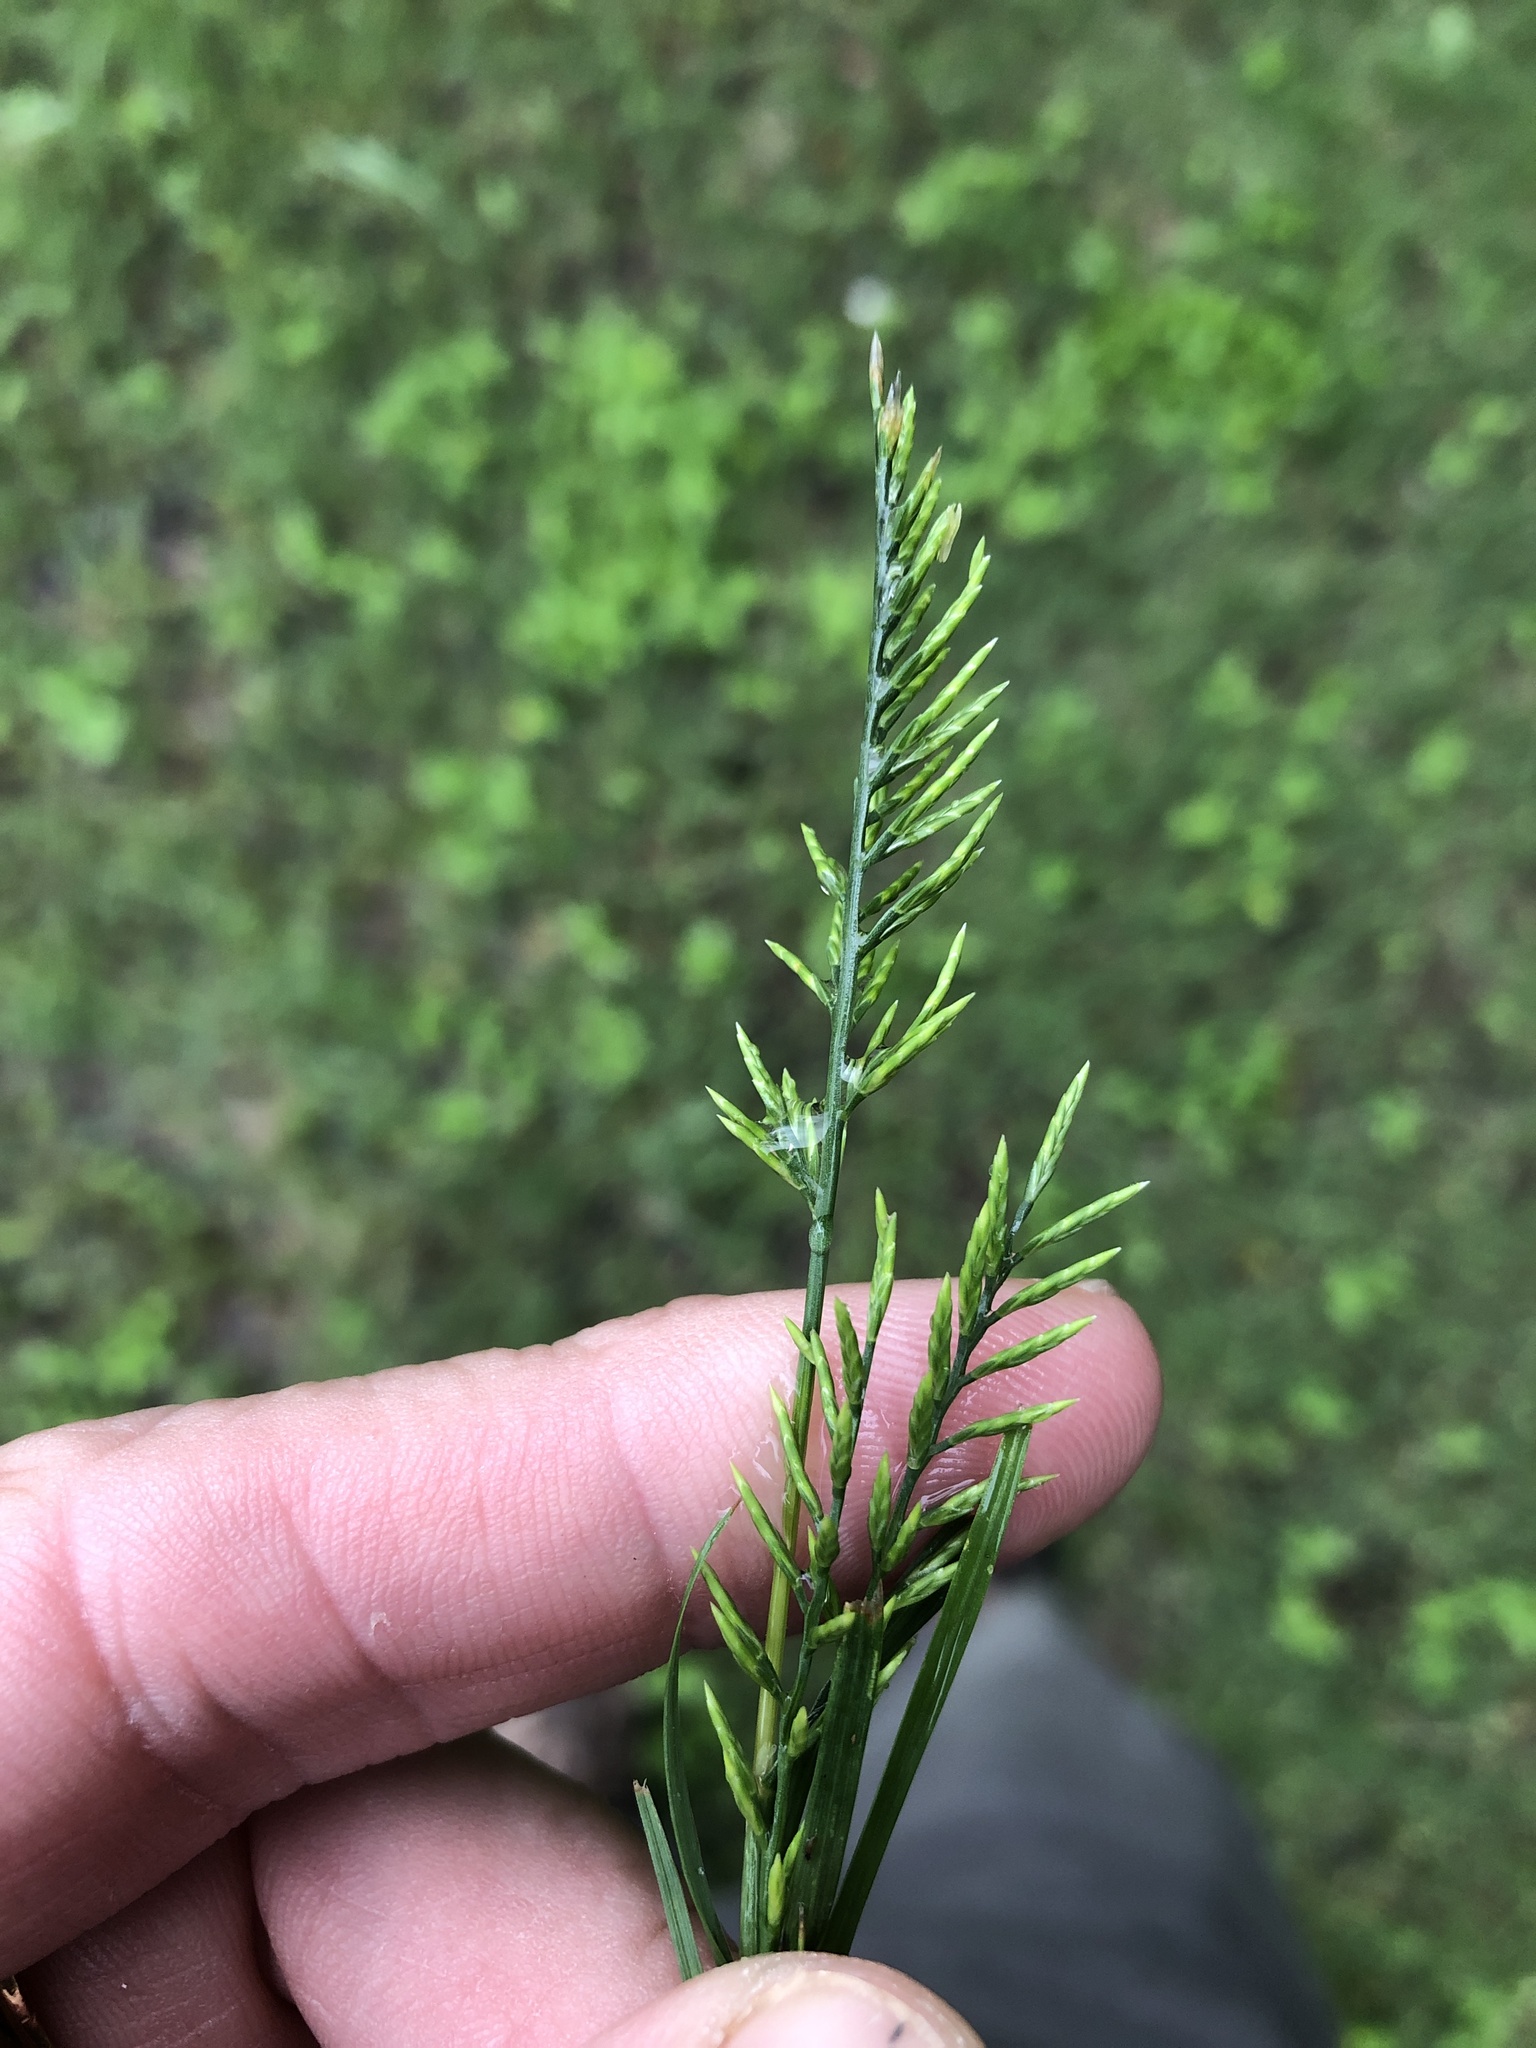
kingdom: Plantae
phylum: Tracheophyta
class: Liliopsida
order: Poales
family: Poaceae
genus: Catapodium
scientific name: Catapodium rigidum
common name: Fern-grass
